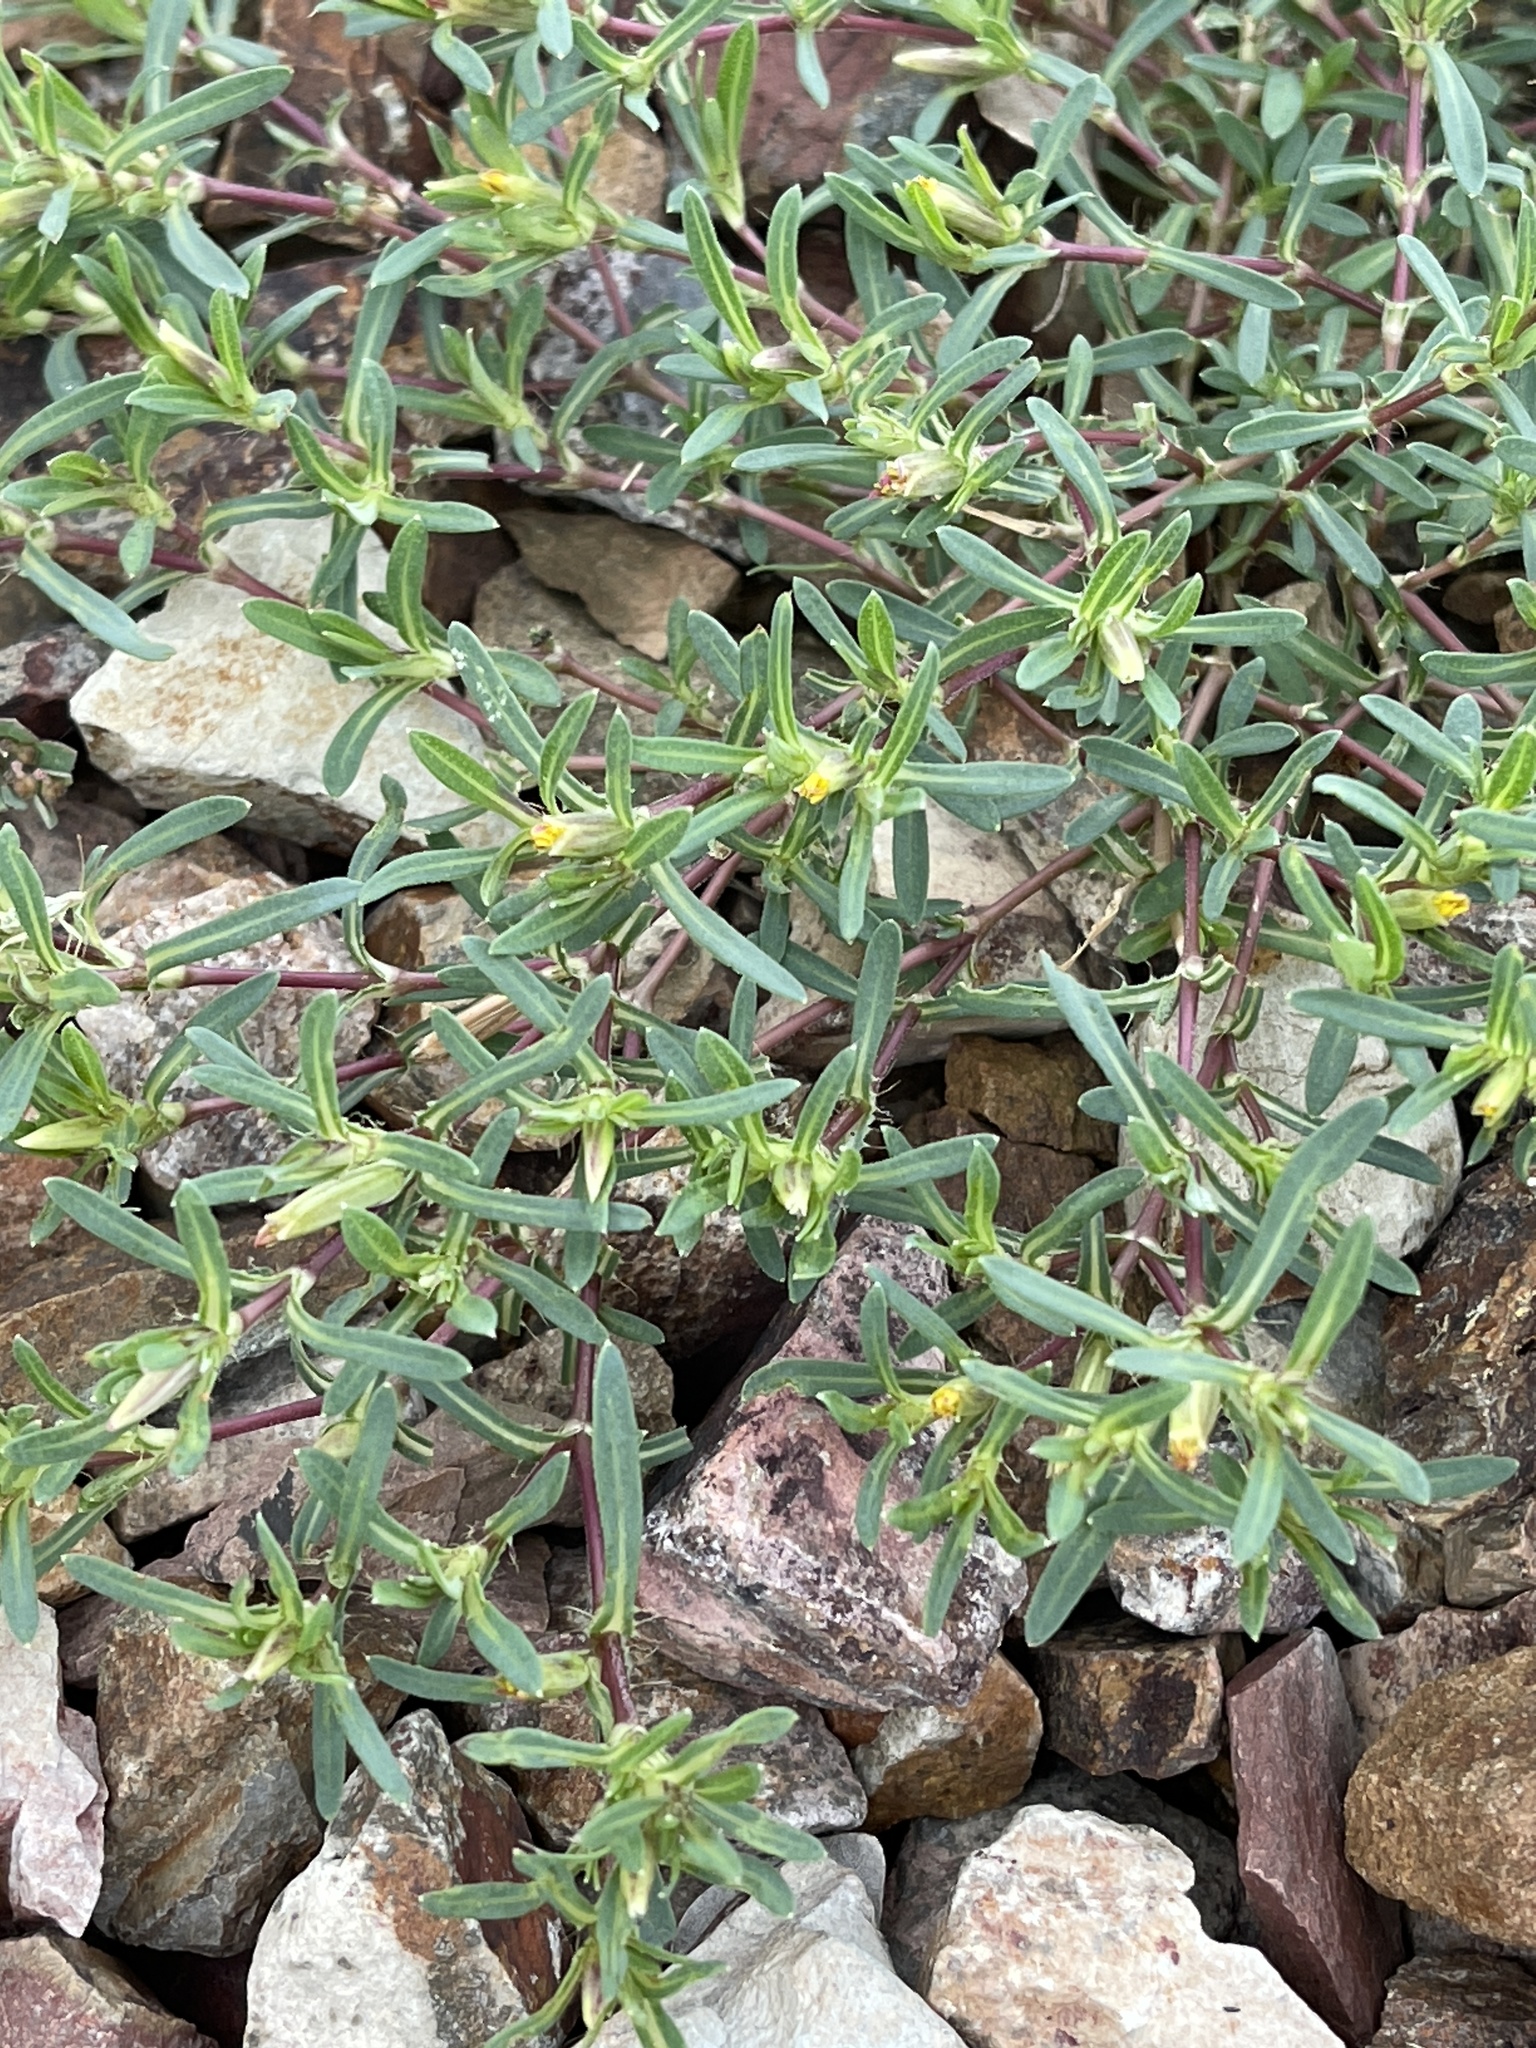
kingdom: Plantae
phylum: Tracheophyta
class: Magnoliopsida
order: Asterales
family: Asteraceae
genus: Pectis
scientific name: Pectis prostrata
